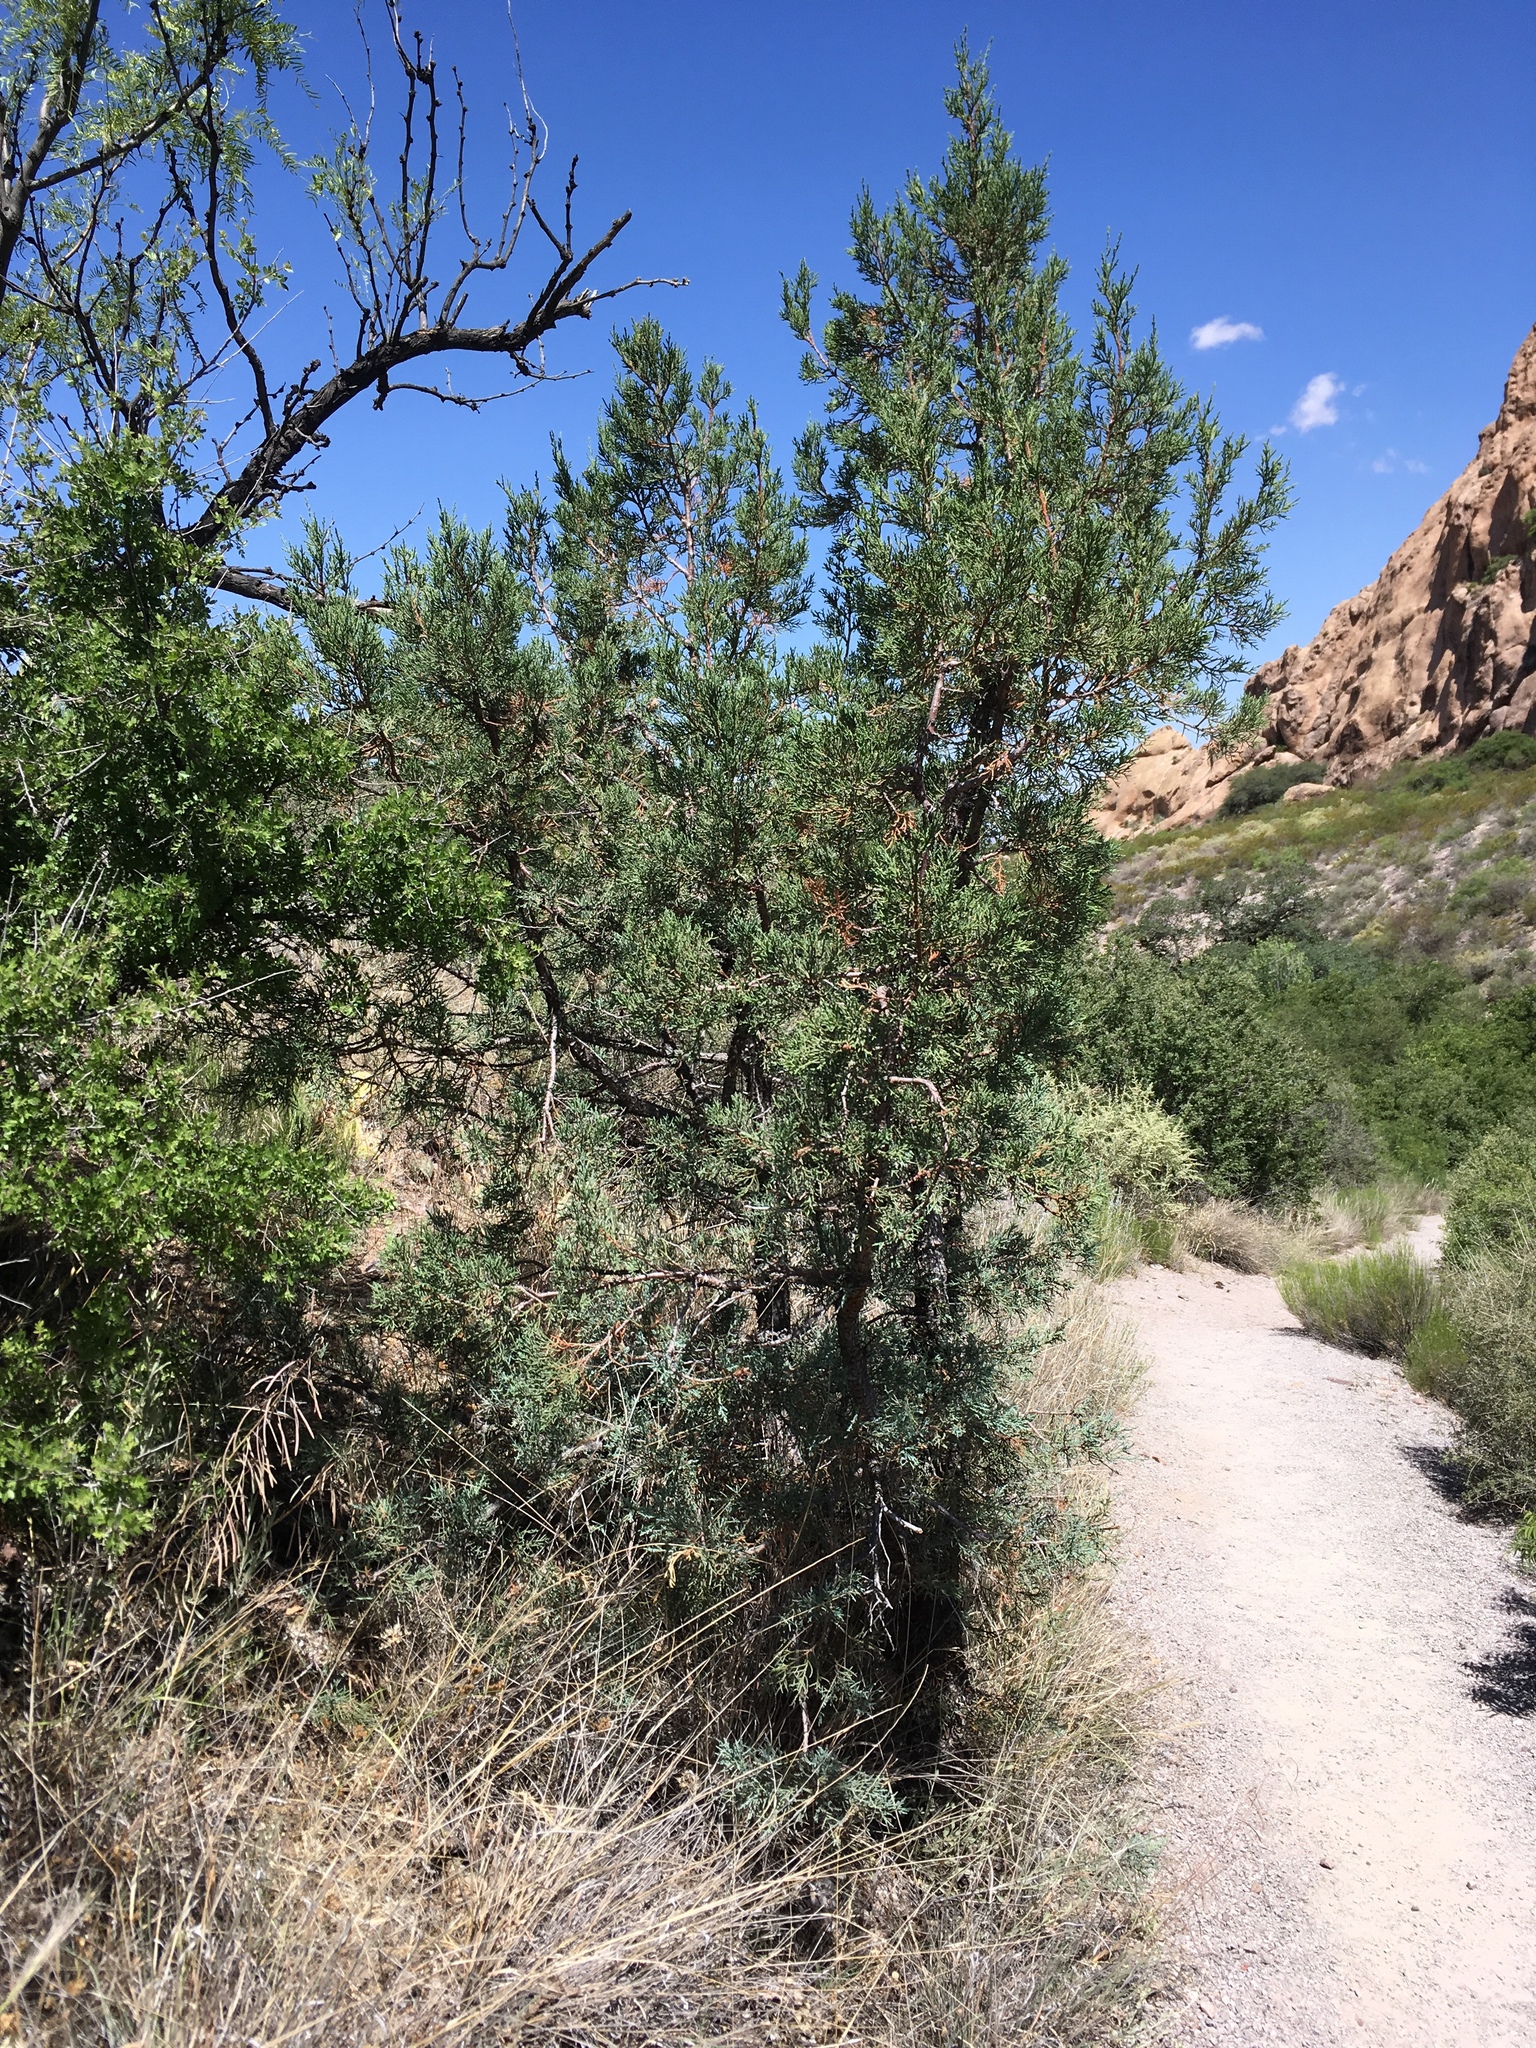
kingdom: Plantae
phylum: Tracheophyta
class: Pinopsida
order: Pinales
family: Cupressaceae
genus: Juniperus
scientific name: Juniperus deppeana
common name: Alligator juniper
